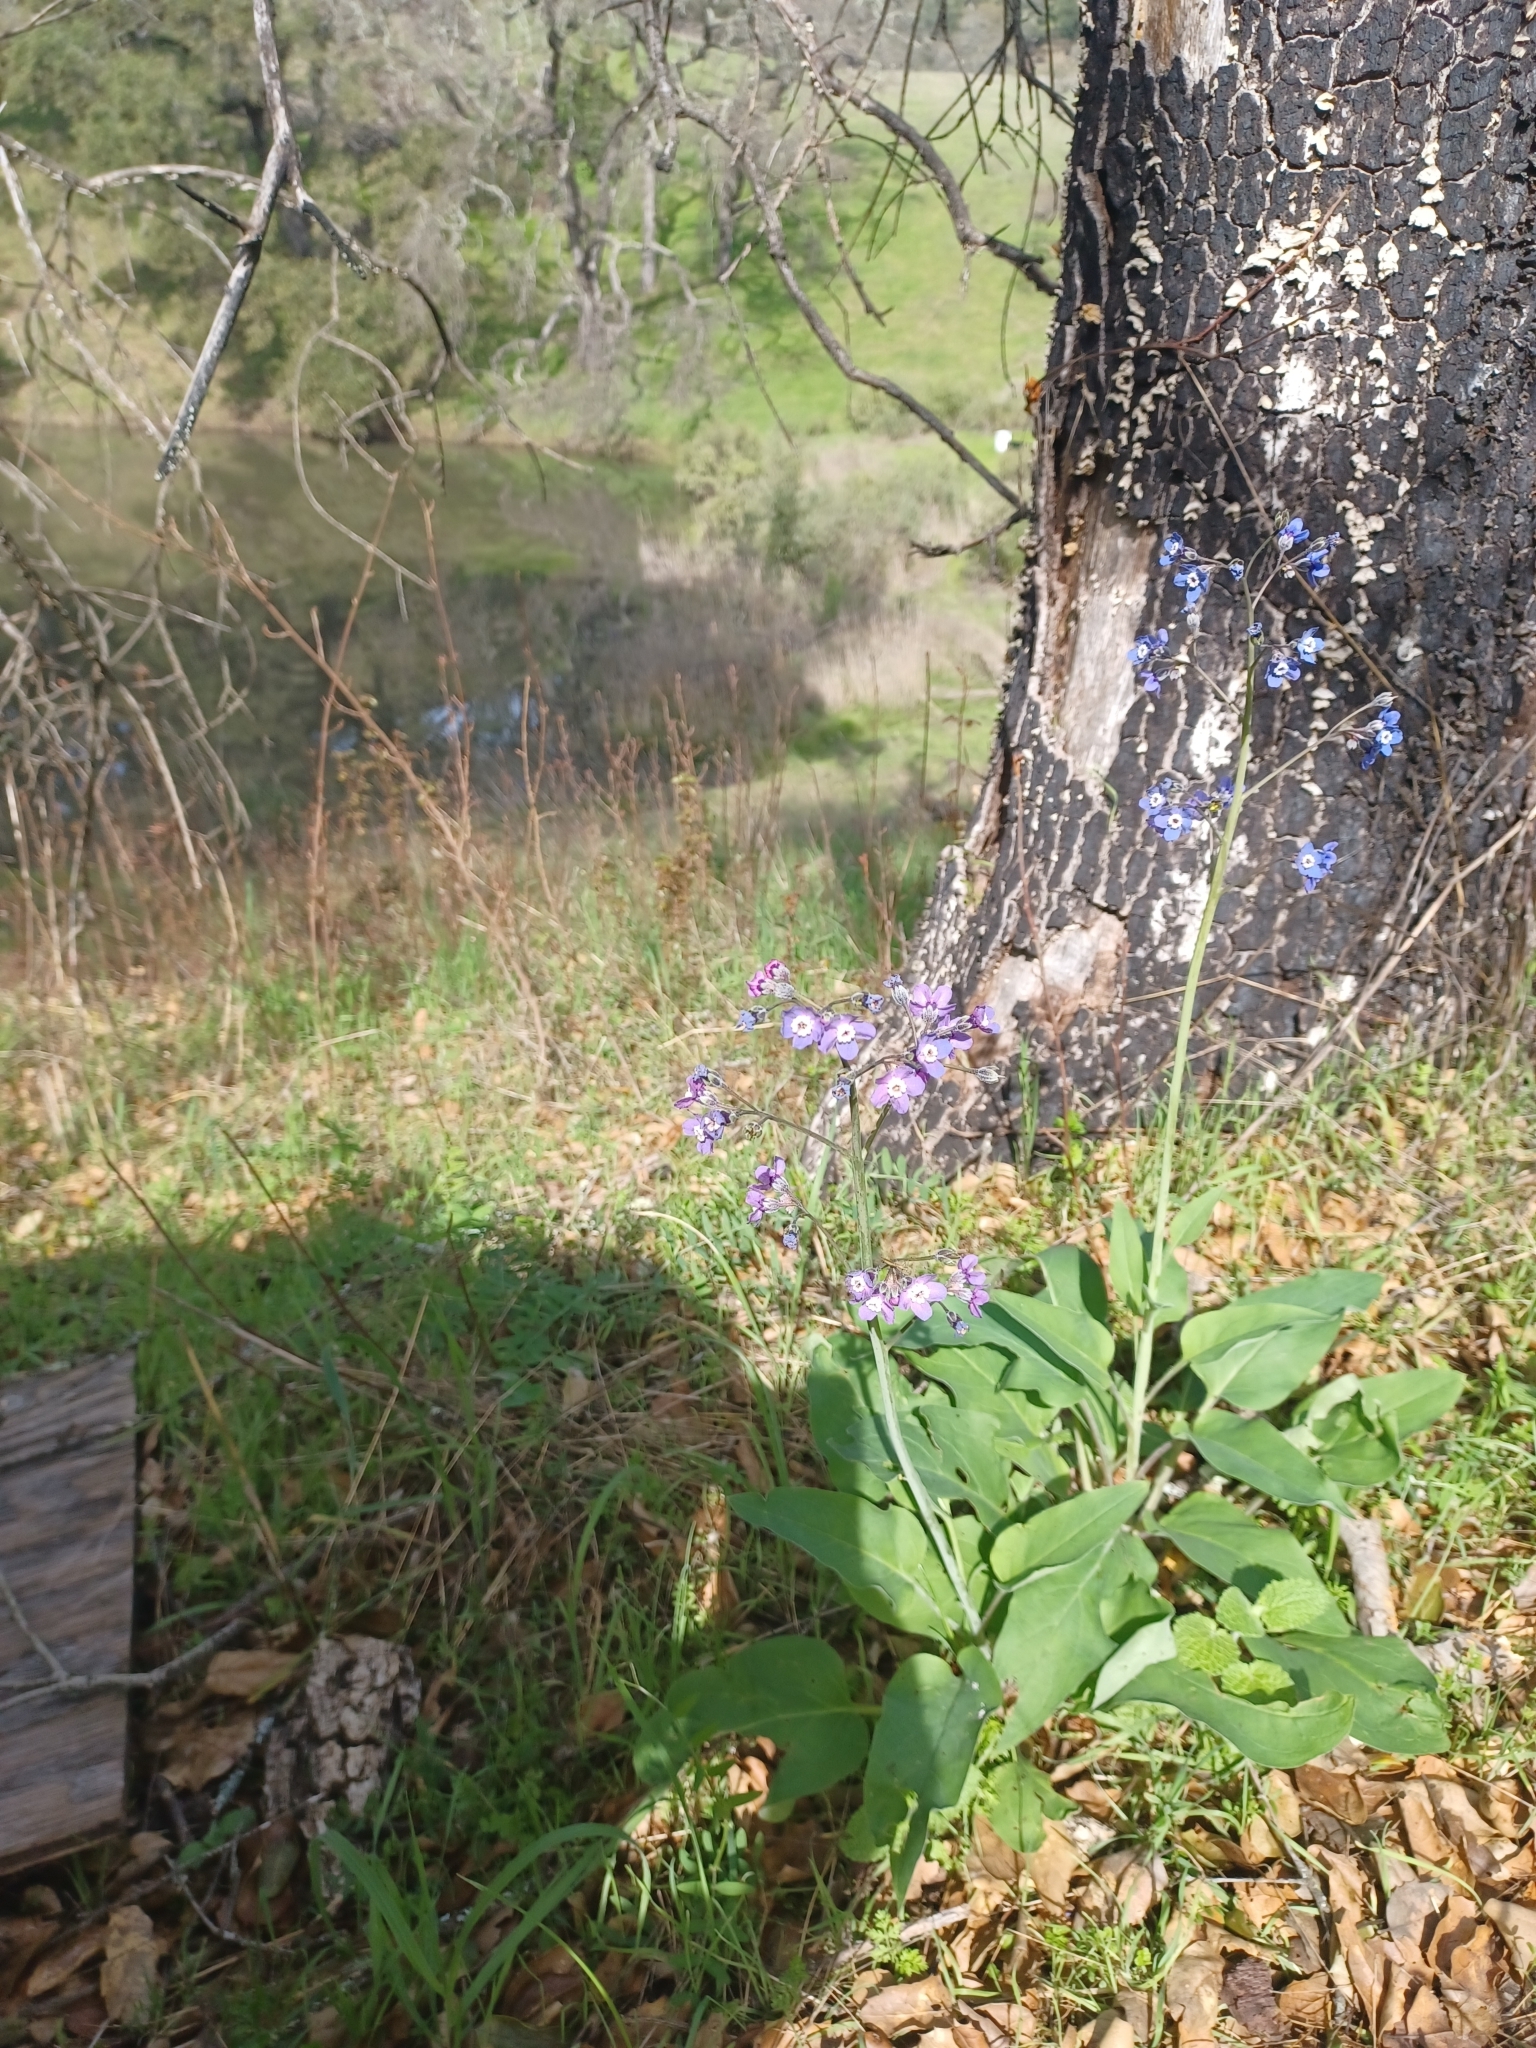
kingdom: Plantae
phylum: Tracheophyta
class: Magnoliopsida
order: Boraginales
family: Boraginaceae
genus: Adelinia
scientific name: Adelinia grande
